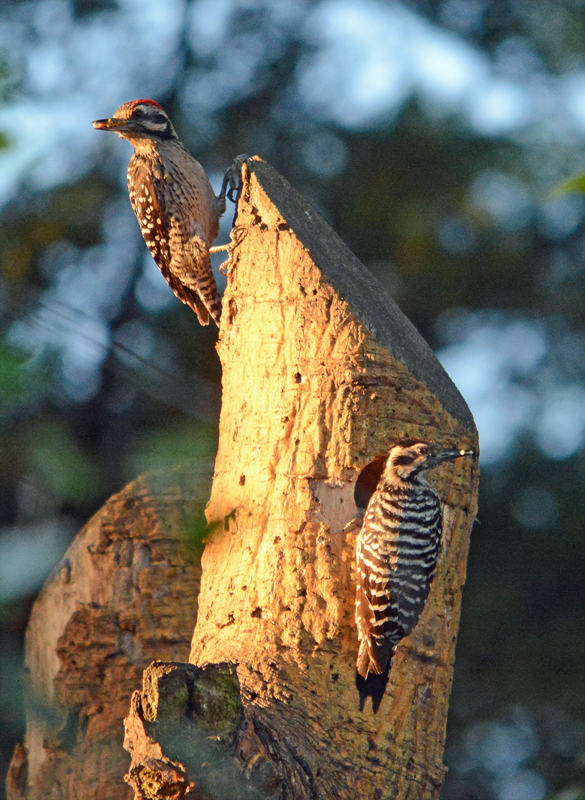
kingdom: Animalia
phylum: Chordata
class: Aves
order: Piciformes
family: Picidae
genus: Dryobates
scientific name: Dryobates scalaris
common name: Ladder-backed woodpecker
